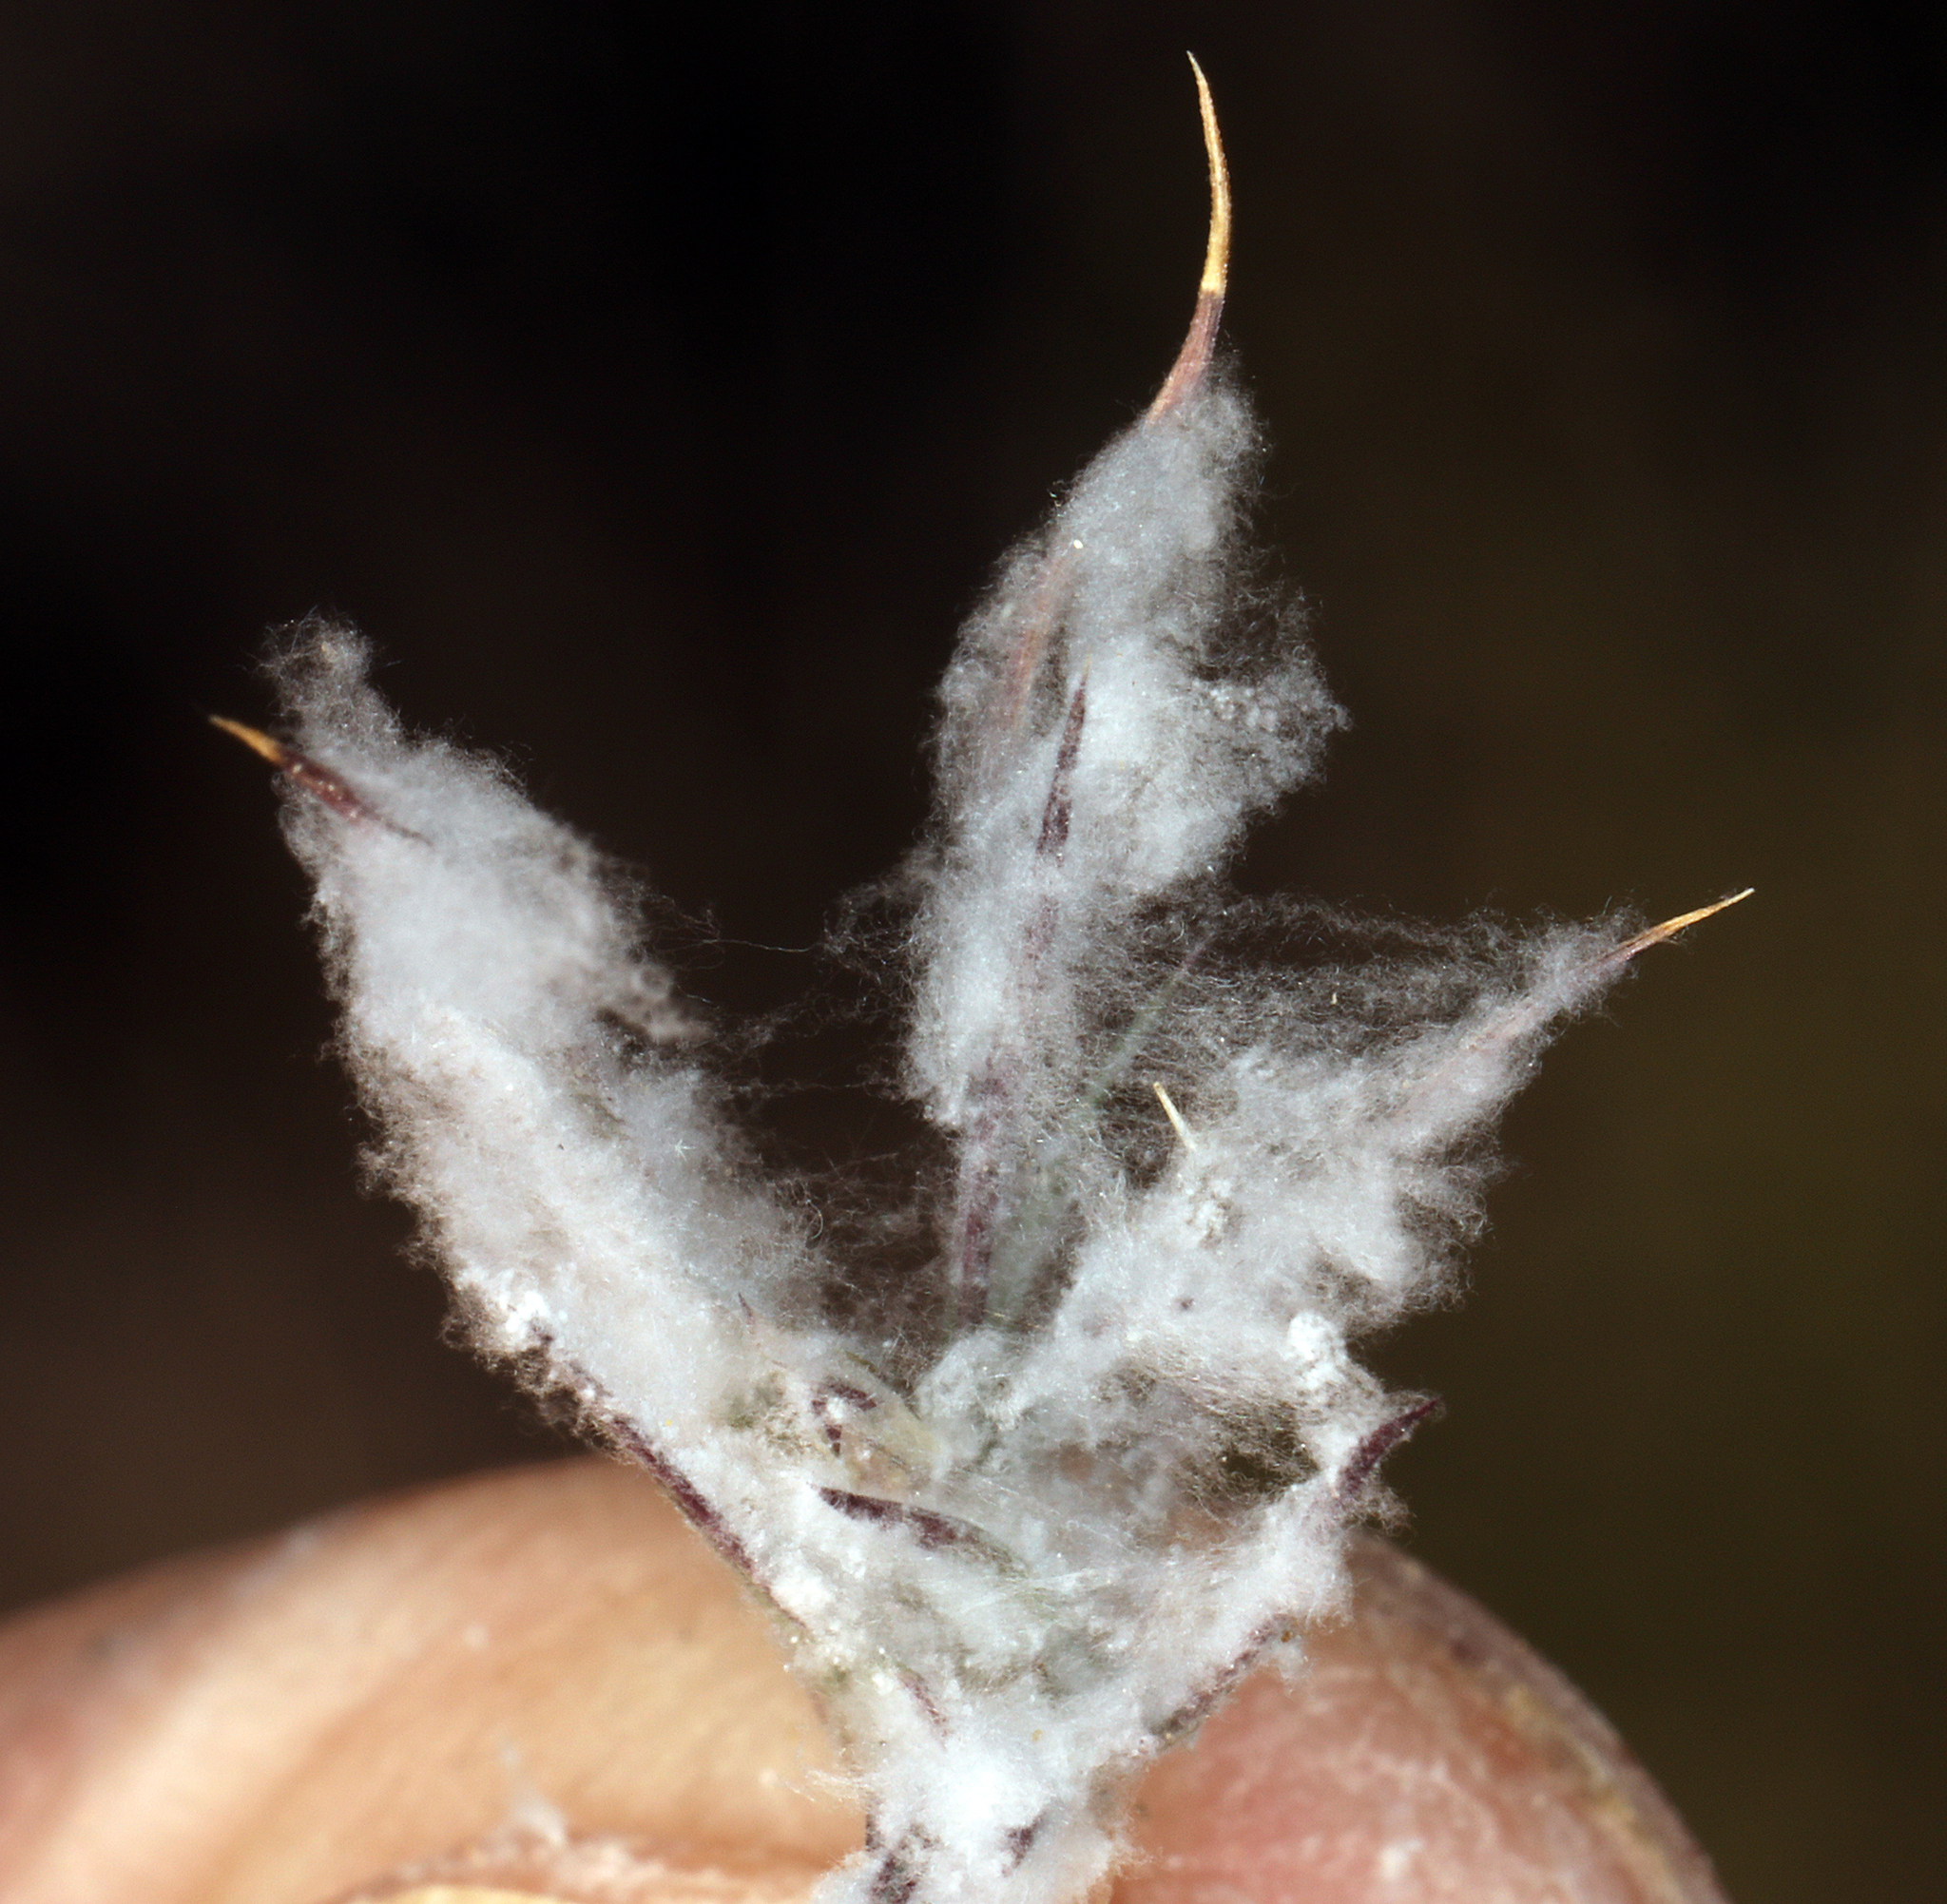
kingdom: Plantae
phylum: Tracheophyta
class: Liliopsida
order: Poales
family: Poaceae
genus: Dasyochloa
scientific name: Dasyochloa pulchella
